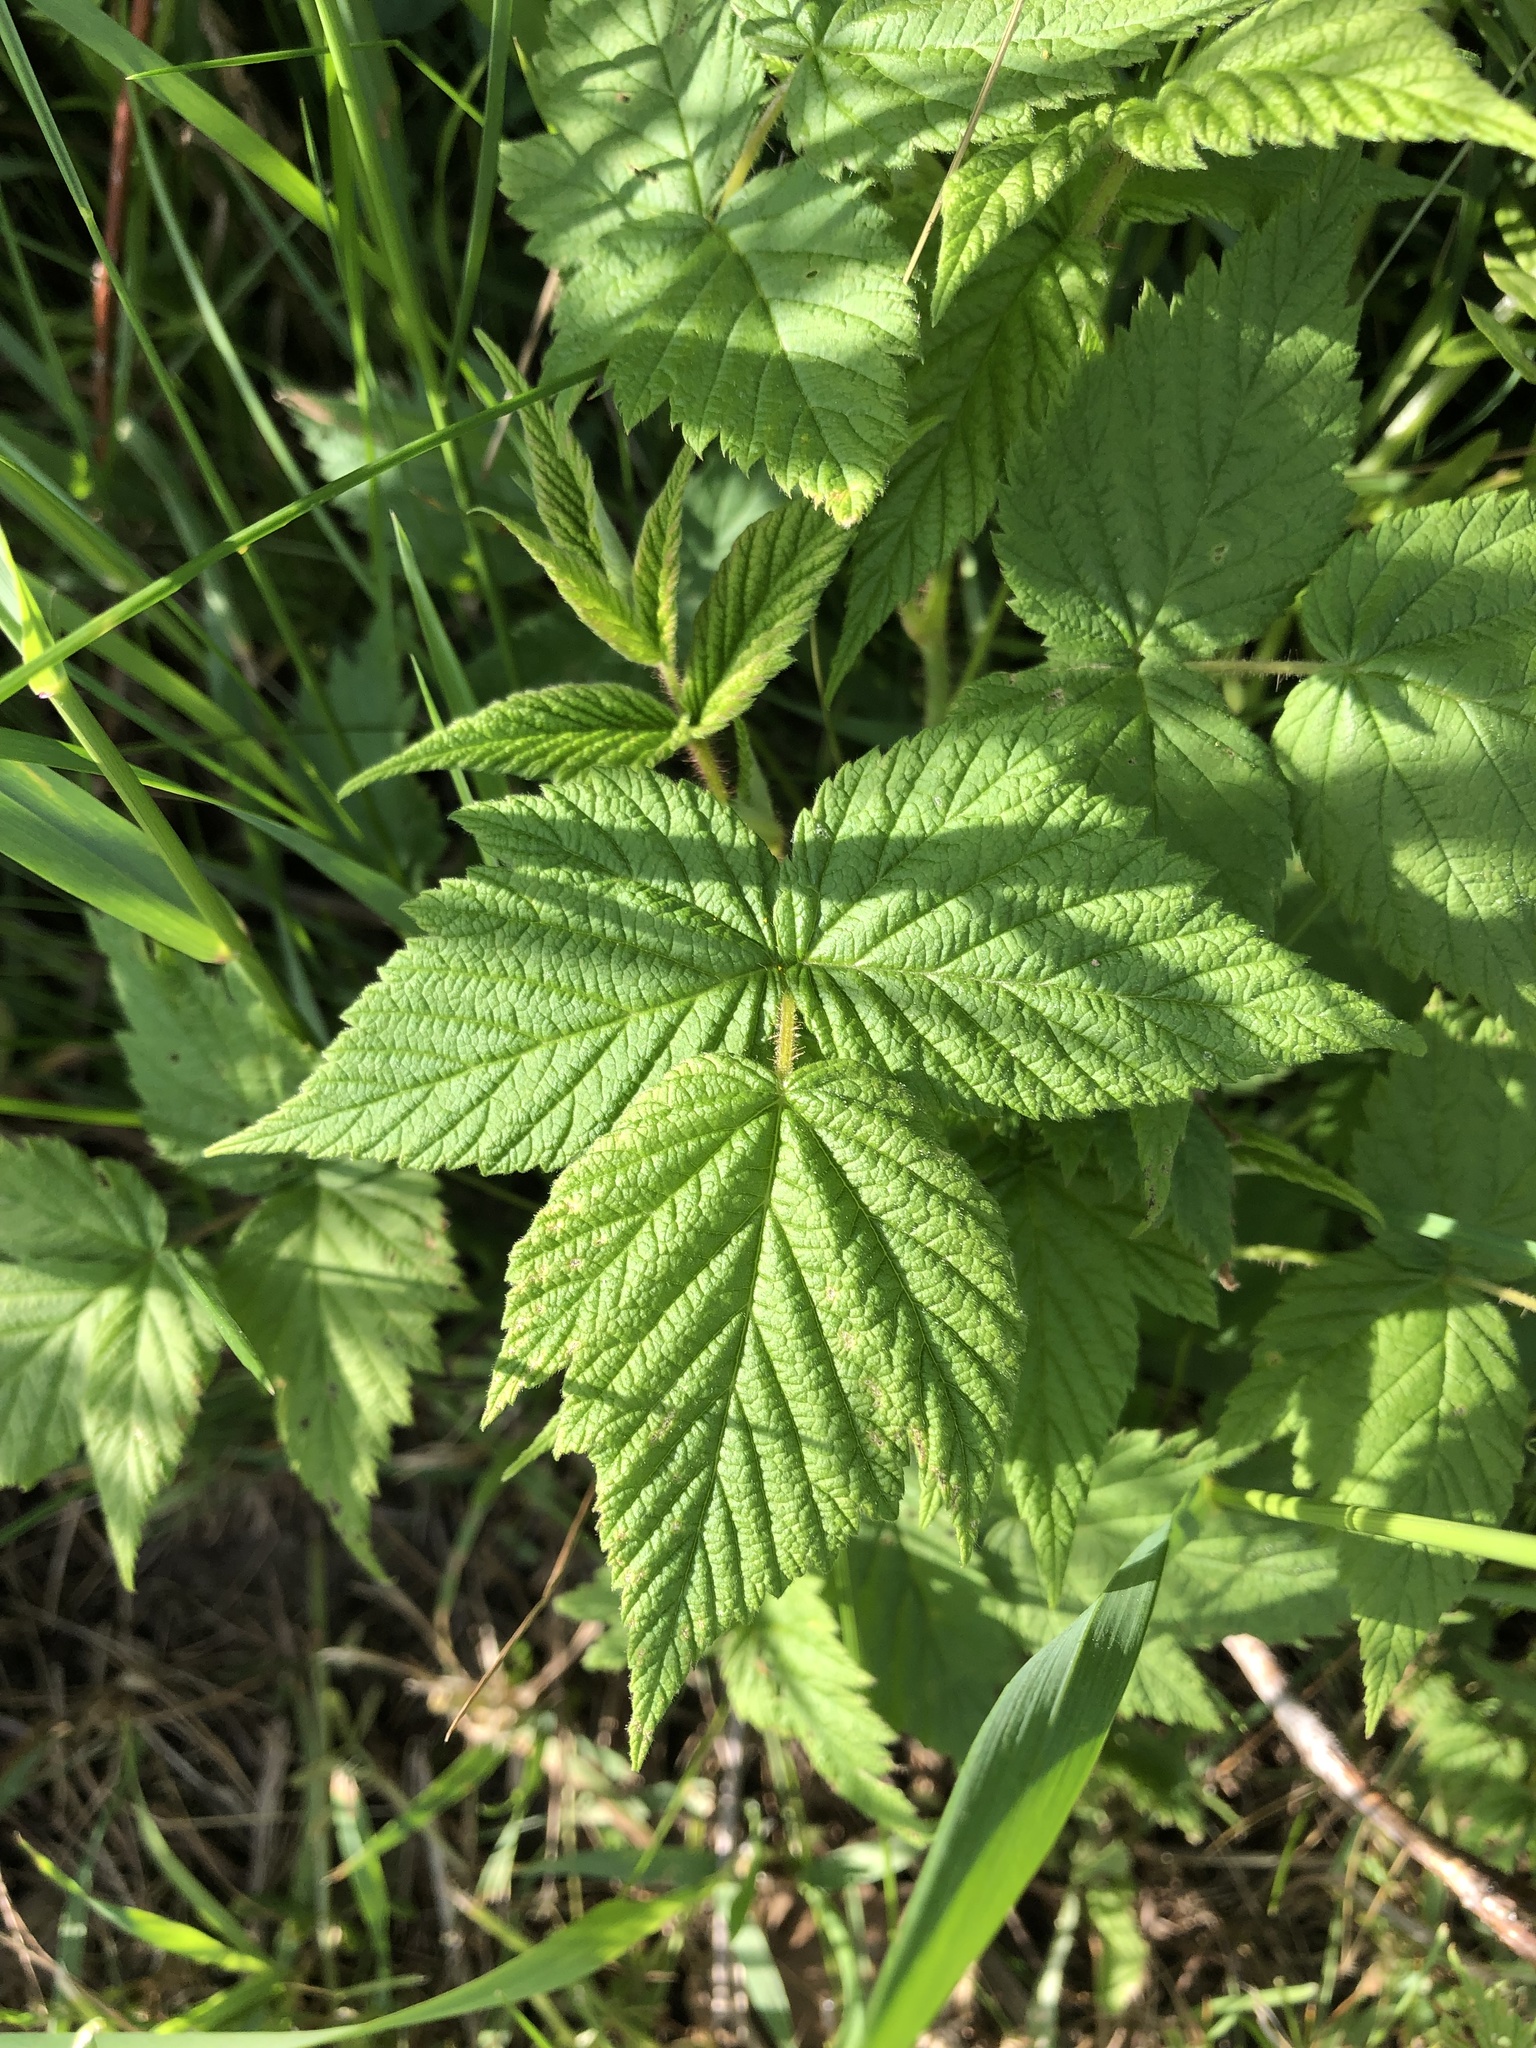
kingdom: Plantae
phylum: Tracheophyta
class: Magnoliopsida
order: Rosales
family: Rosaceae
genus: Rubus
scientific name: Rubus idaeus
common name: Raspberry
